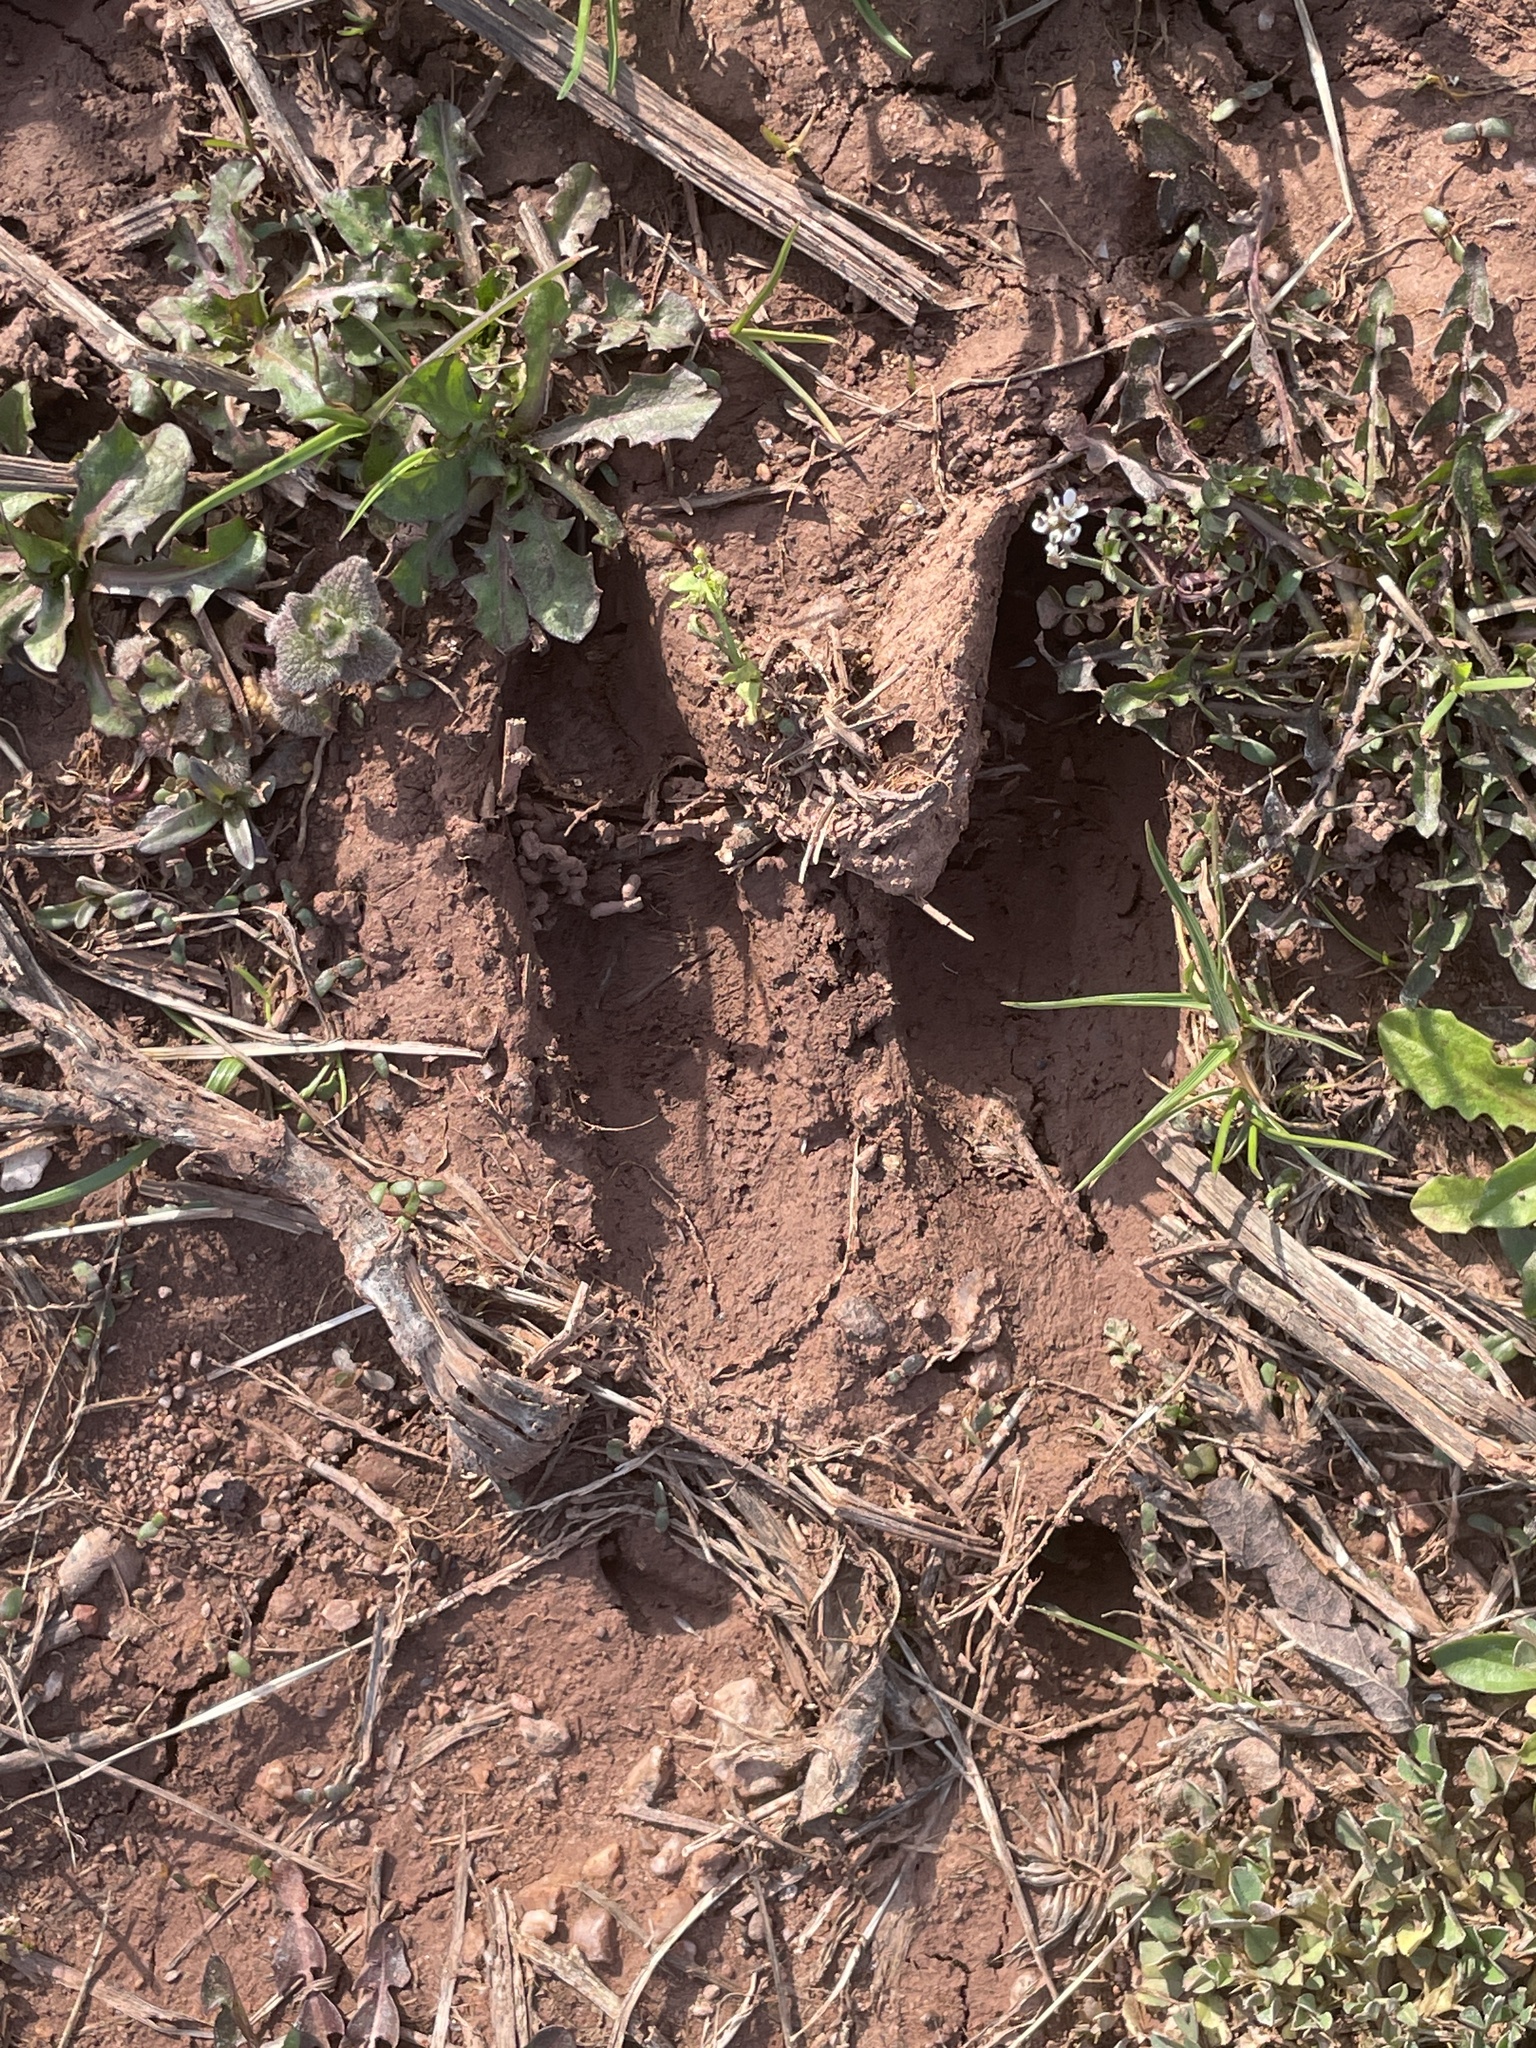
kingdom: Animalia
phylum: Chordata
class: Mammalia
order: Artiodactyla
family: Cervidae
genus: Odocoileus
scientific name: Odocoileus virginianus
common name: White-tailed deer
